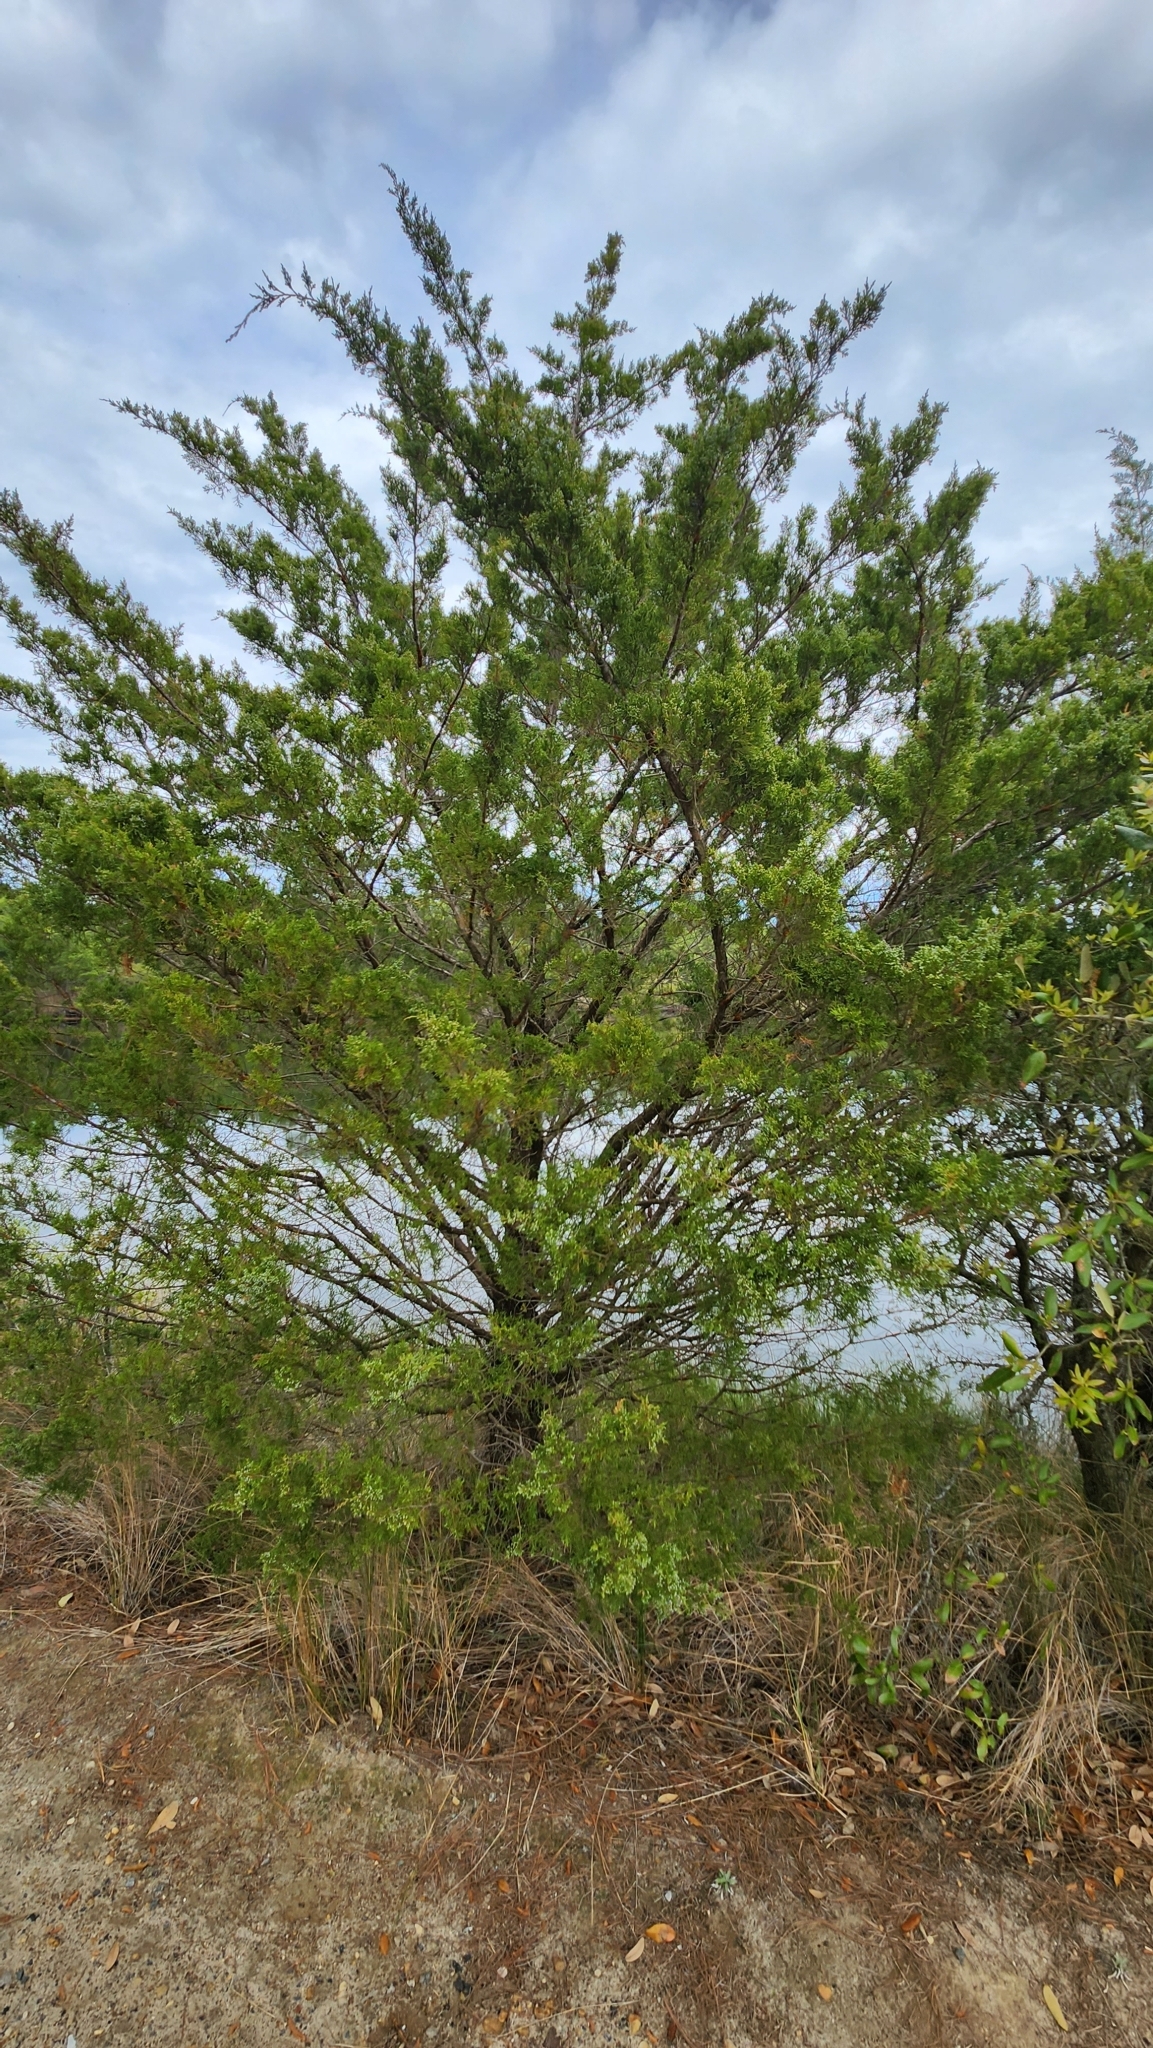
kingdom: Plantae
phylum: Tracheophyta
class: Pinopsida
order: Pinales
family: Cupressaceae
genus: Juniperus
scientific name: Juniperus virginiana
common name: Red juniper
